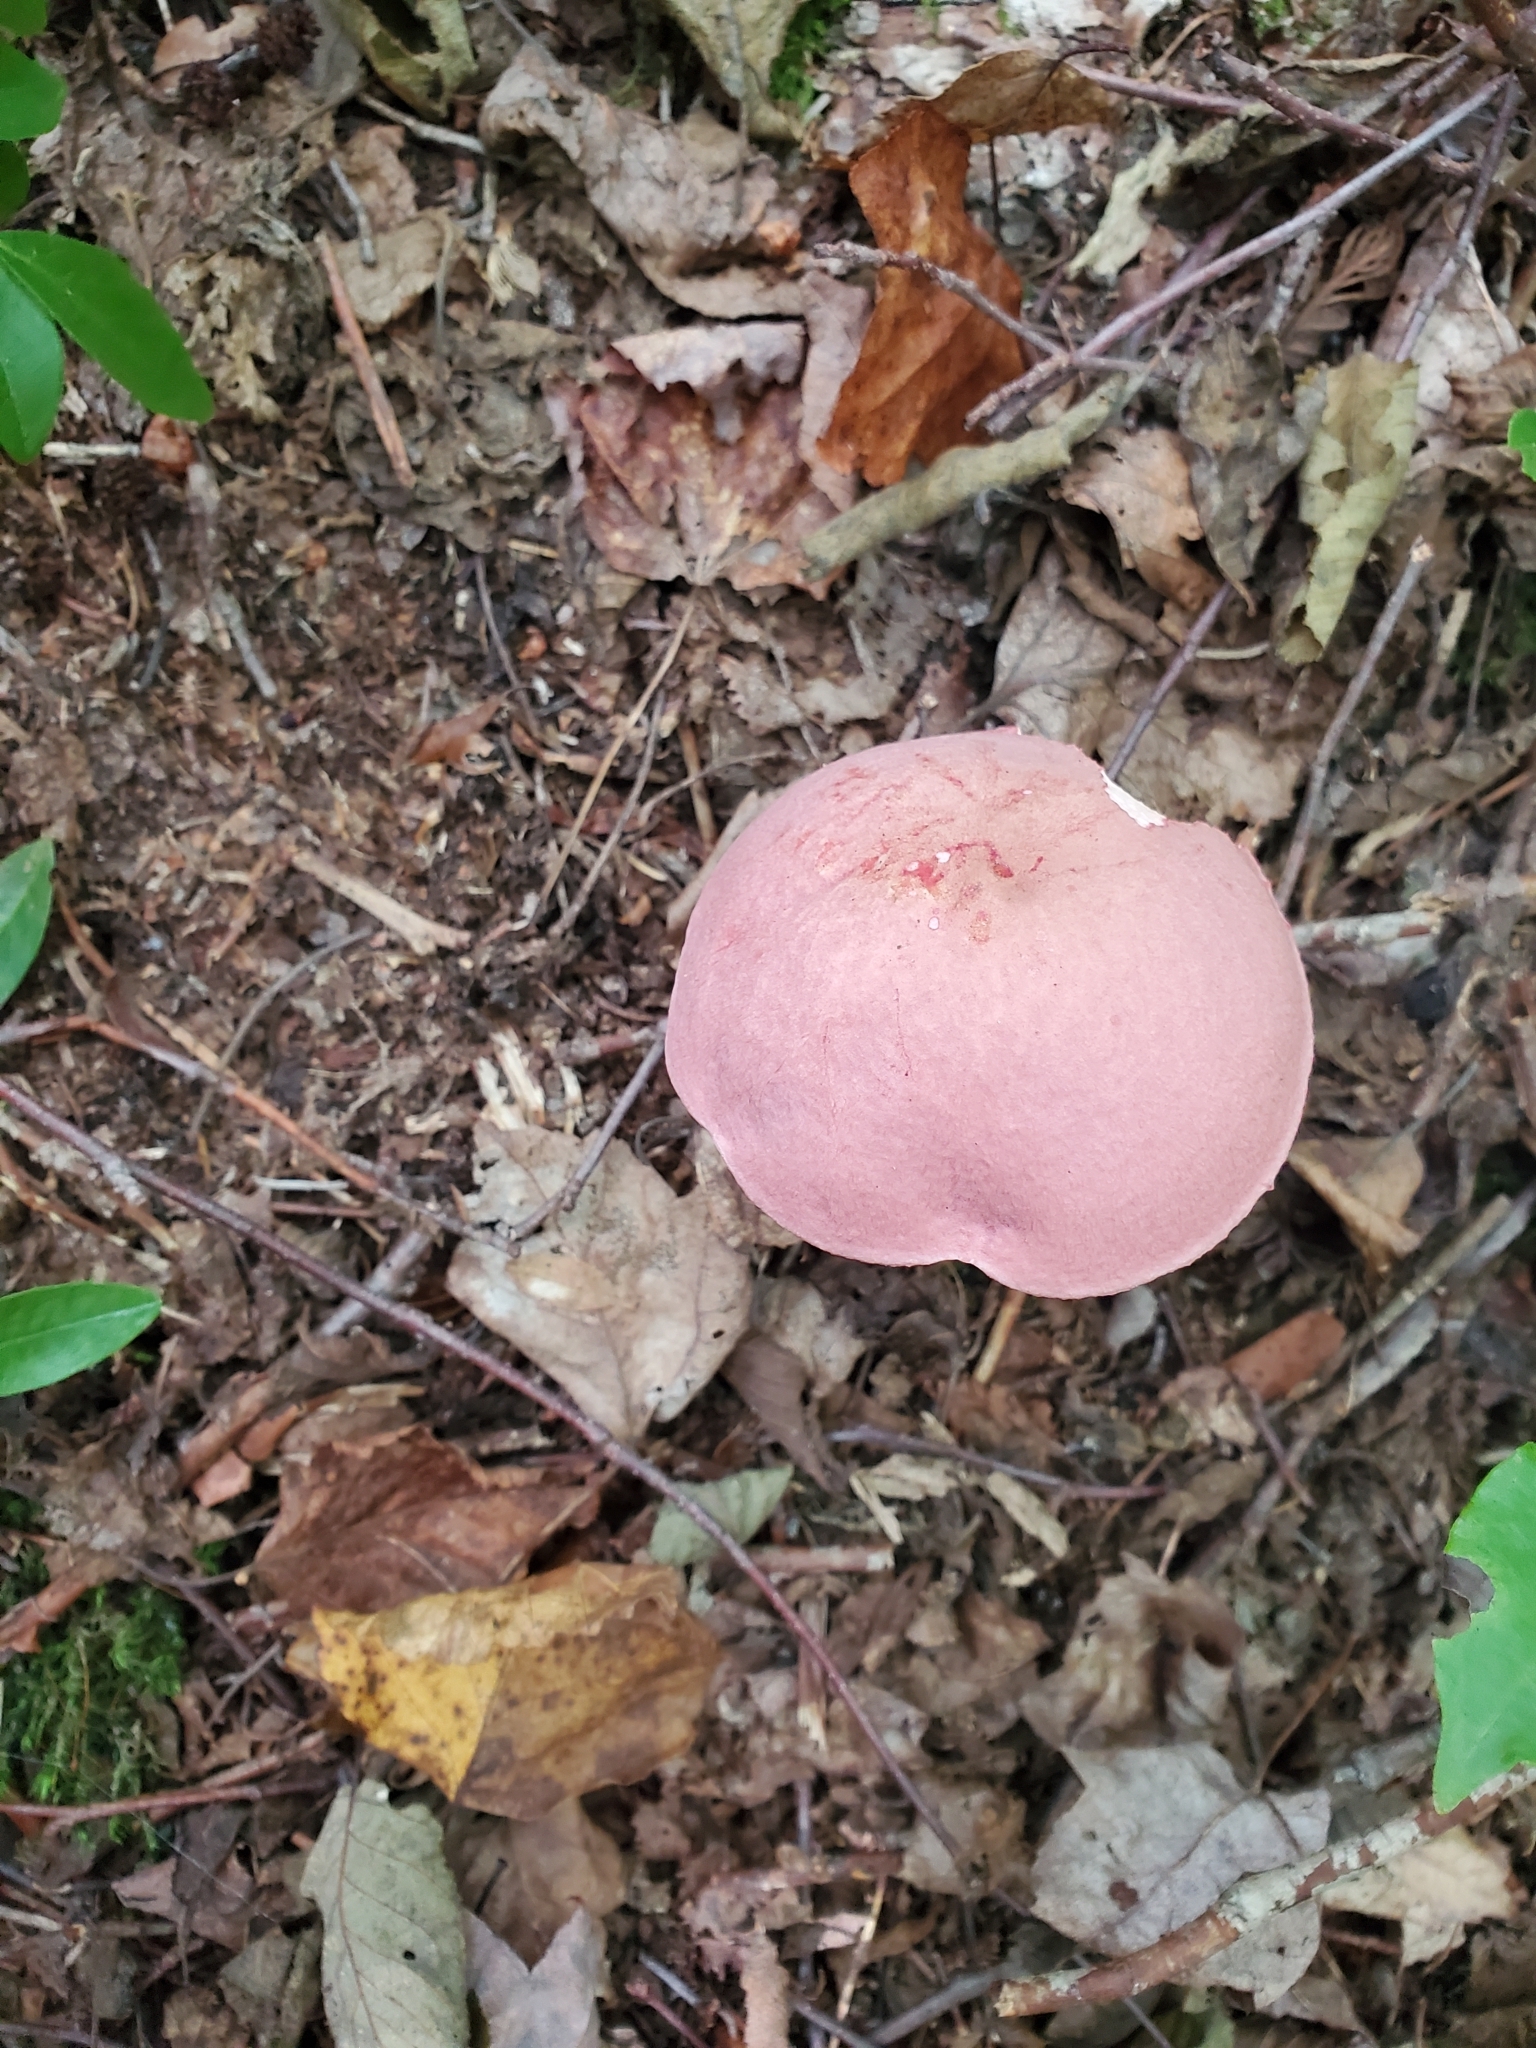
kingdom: Fungi
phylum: Basidiomycota
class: Agaricomycetes
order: Boletales
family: Boletaceae
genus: Harrya
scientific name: Harrya chromipes
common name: Chrome-footed bolete
